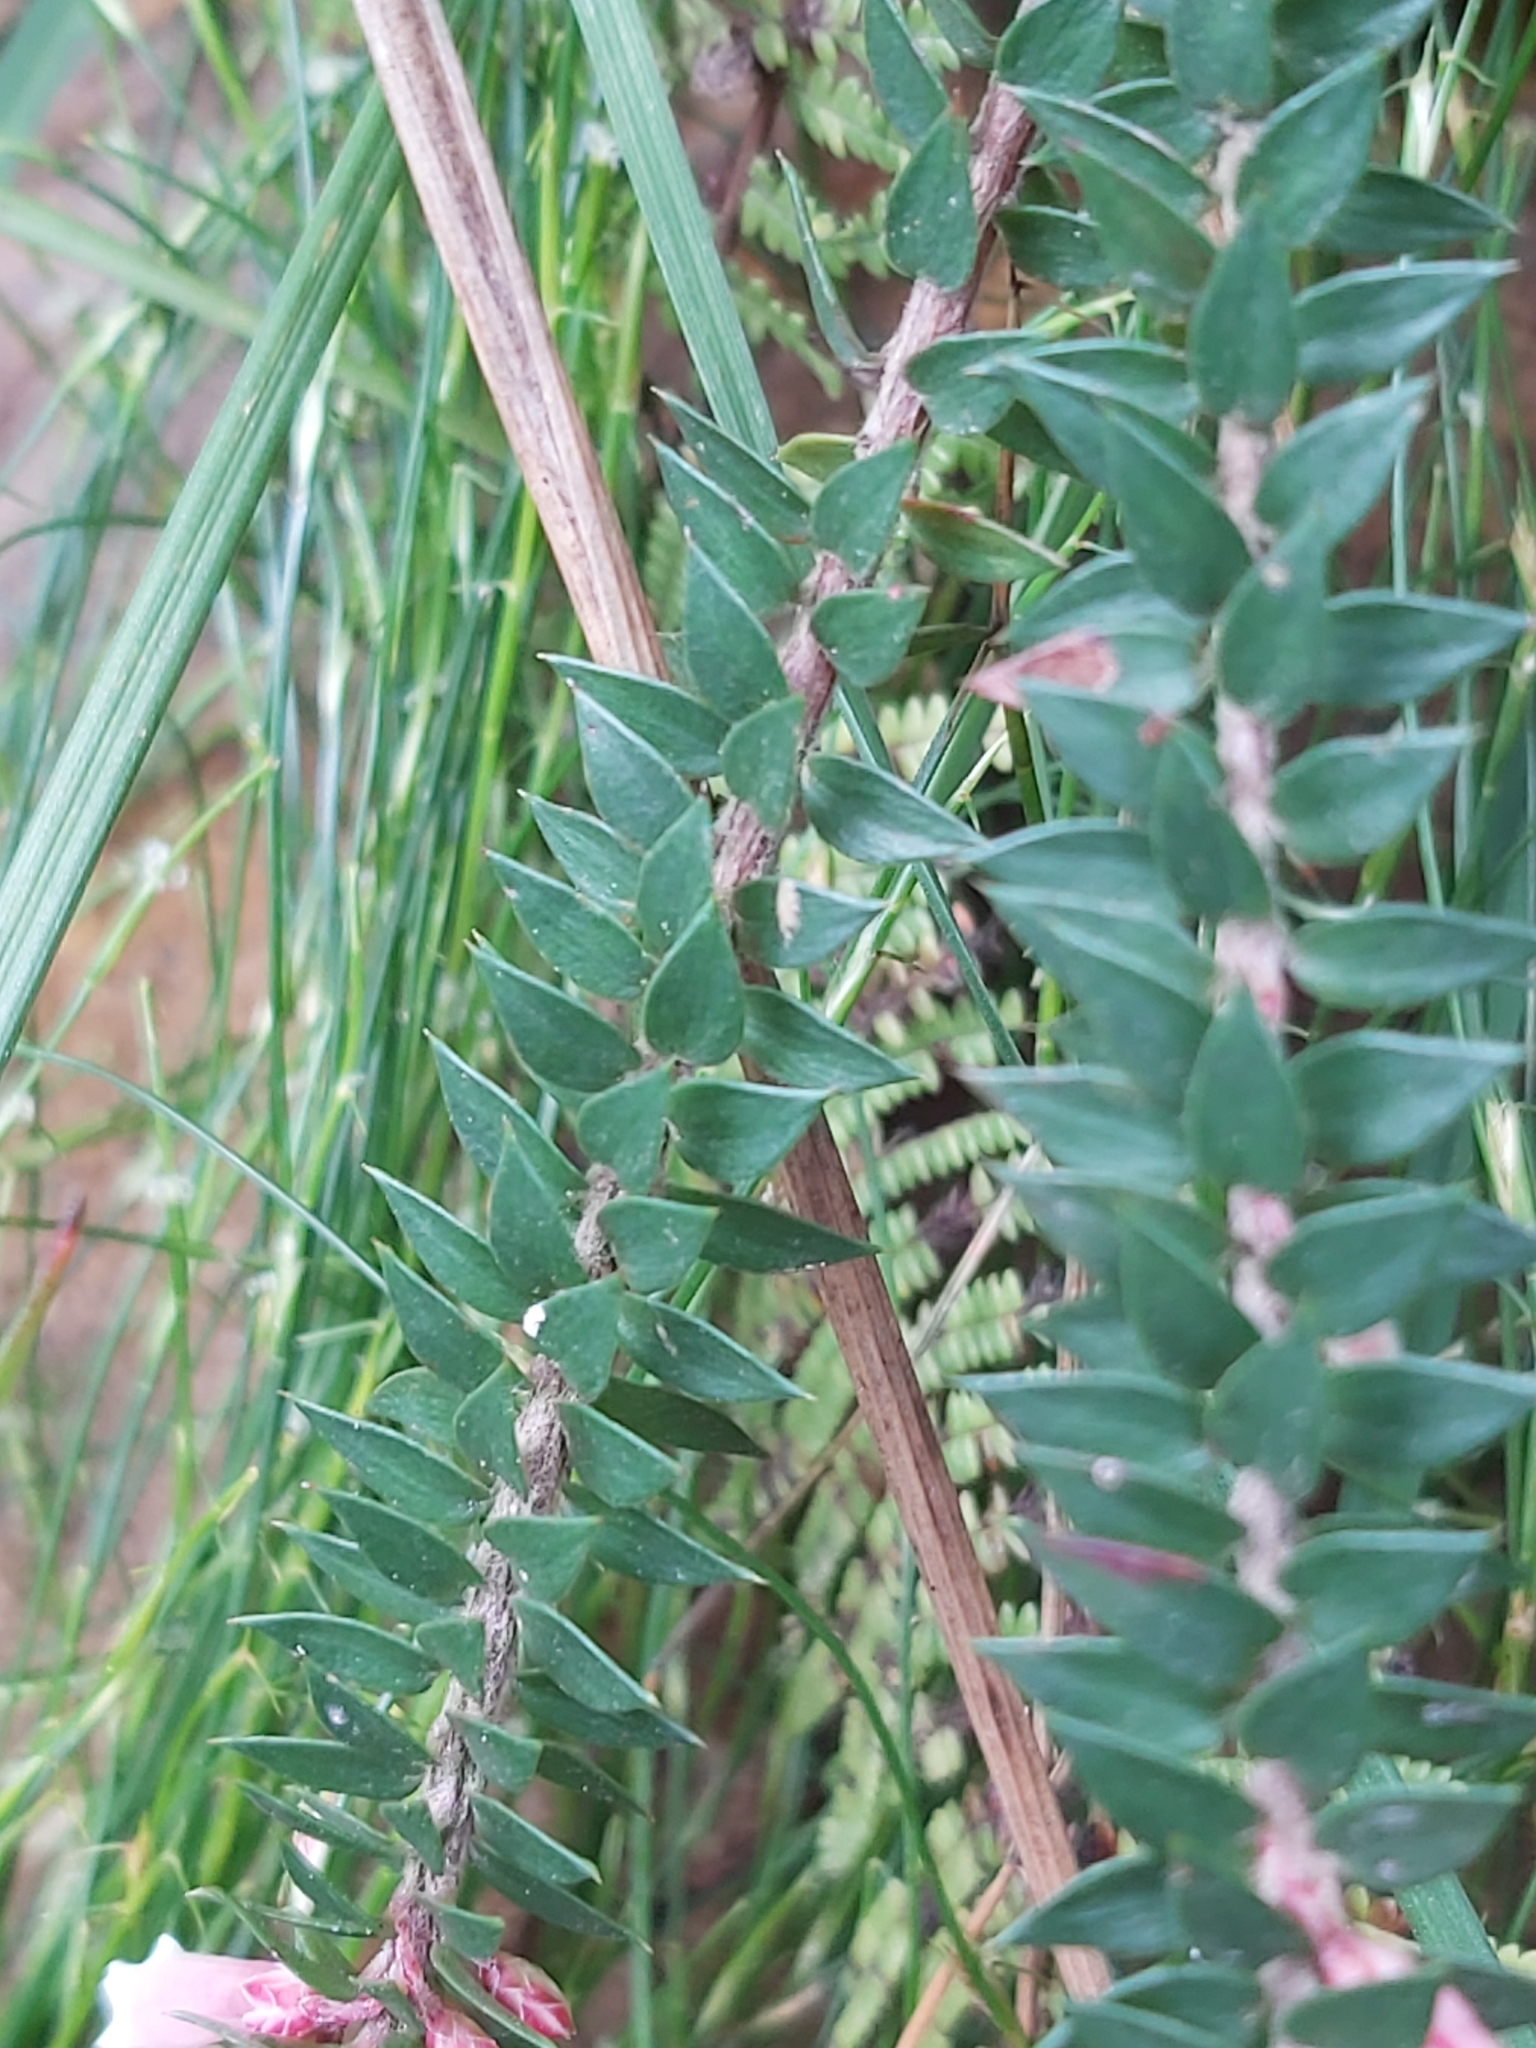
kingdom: Plantae
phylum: Tracheophyta
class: Magnoliopsida
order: Ericales
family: Ericaceae
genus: Epacris
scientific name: Epacris reclinata
